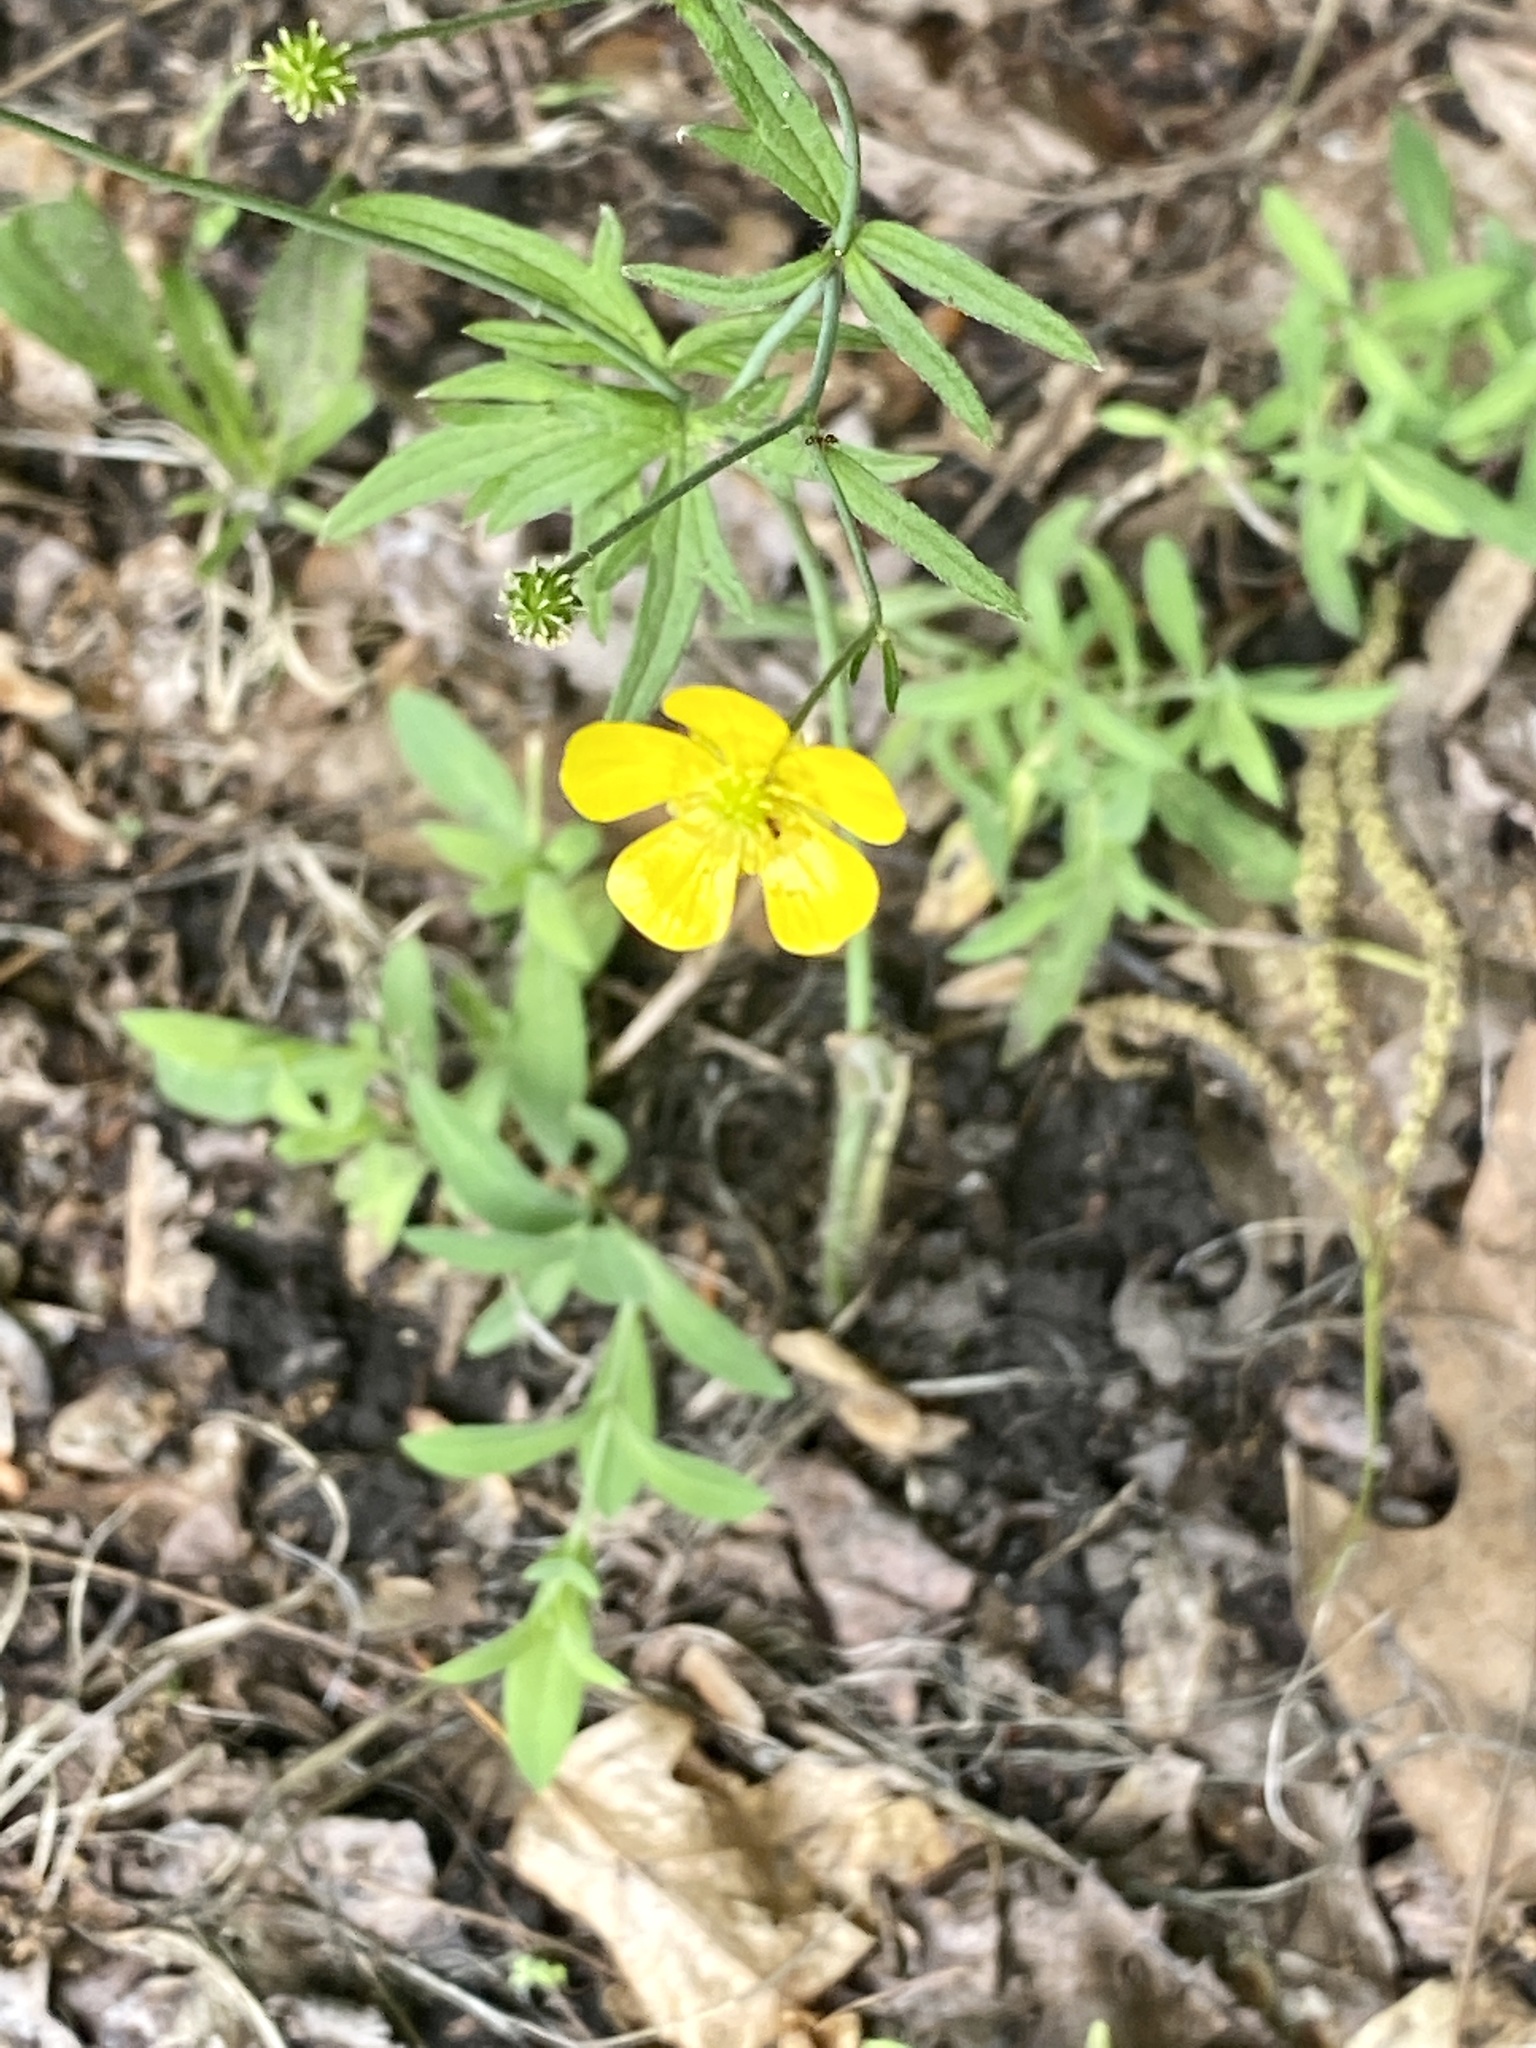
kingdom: Plantae
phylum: Tracheophyta
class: Magnoliopsida
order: Ranunculales
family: Ranunculaceae
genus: Ranunculus
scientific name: Ranunculus acris
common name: Meadow buttercup
